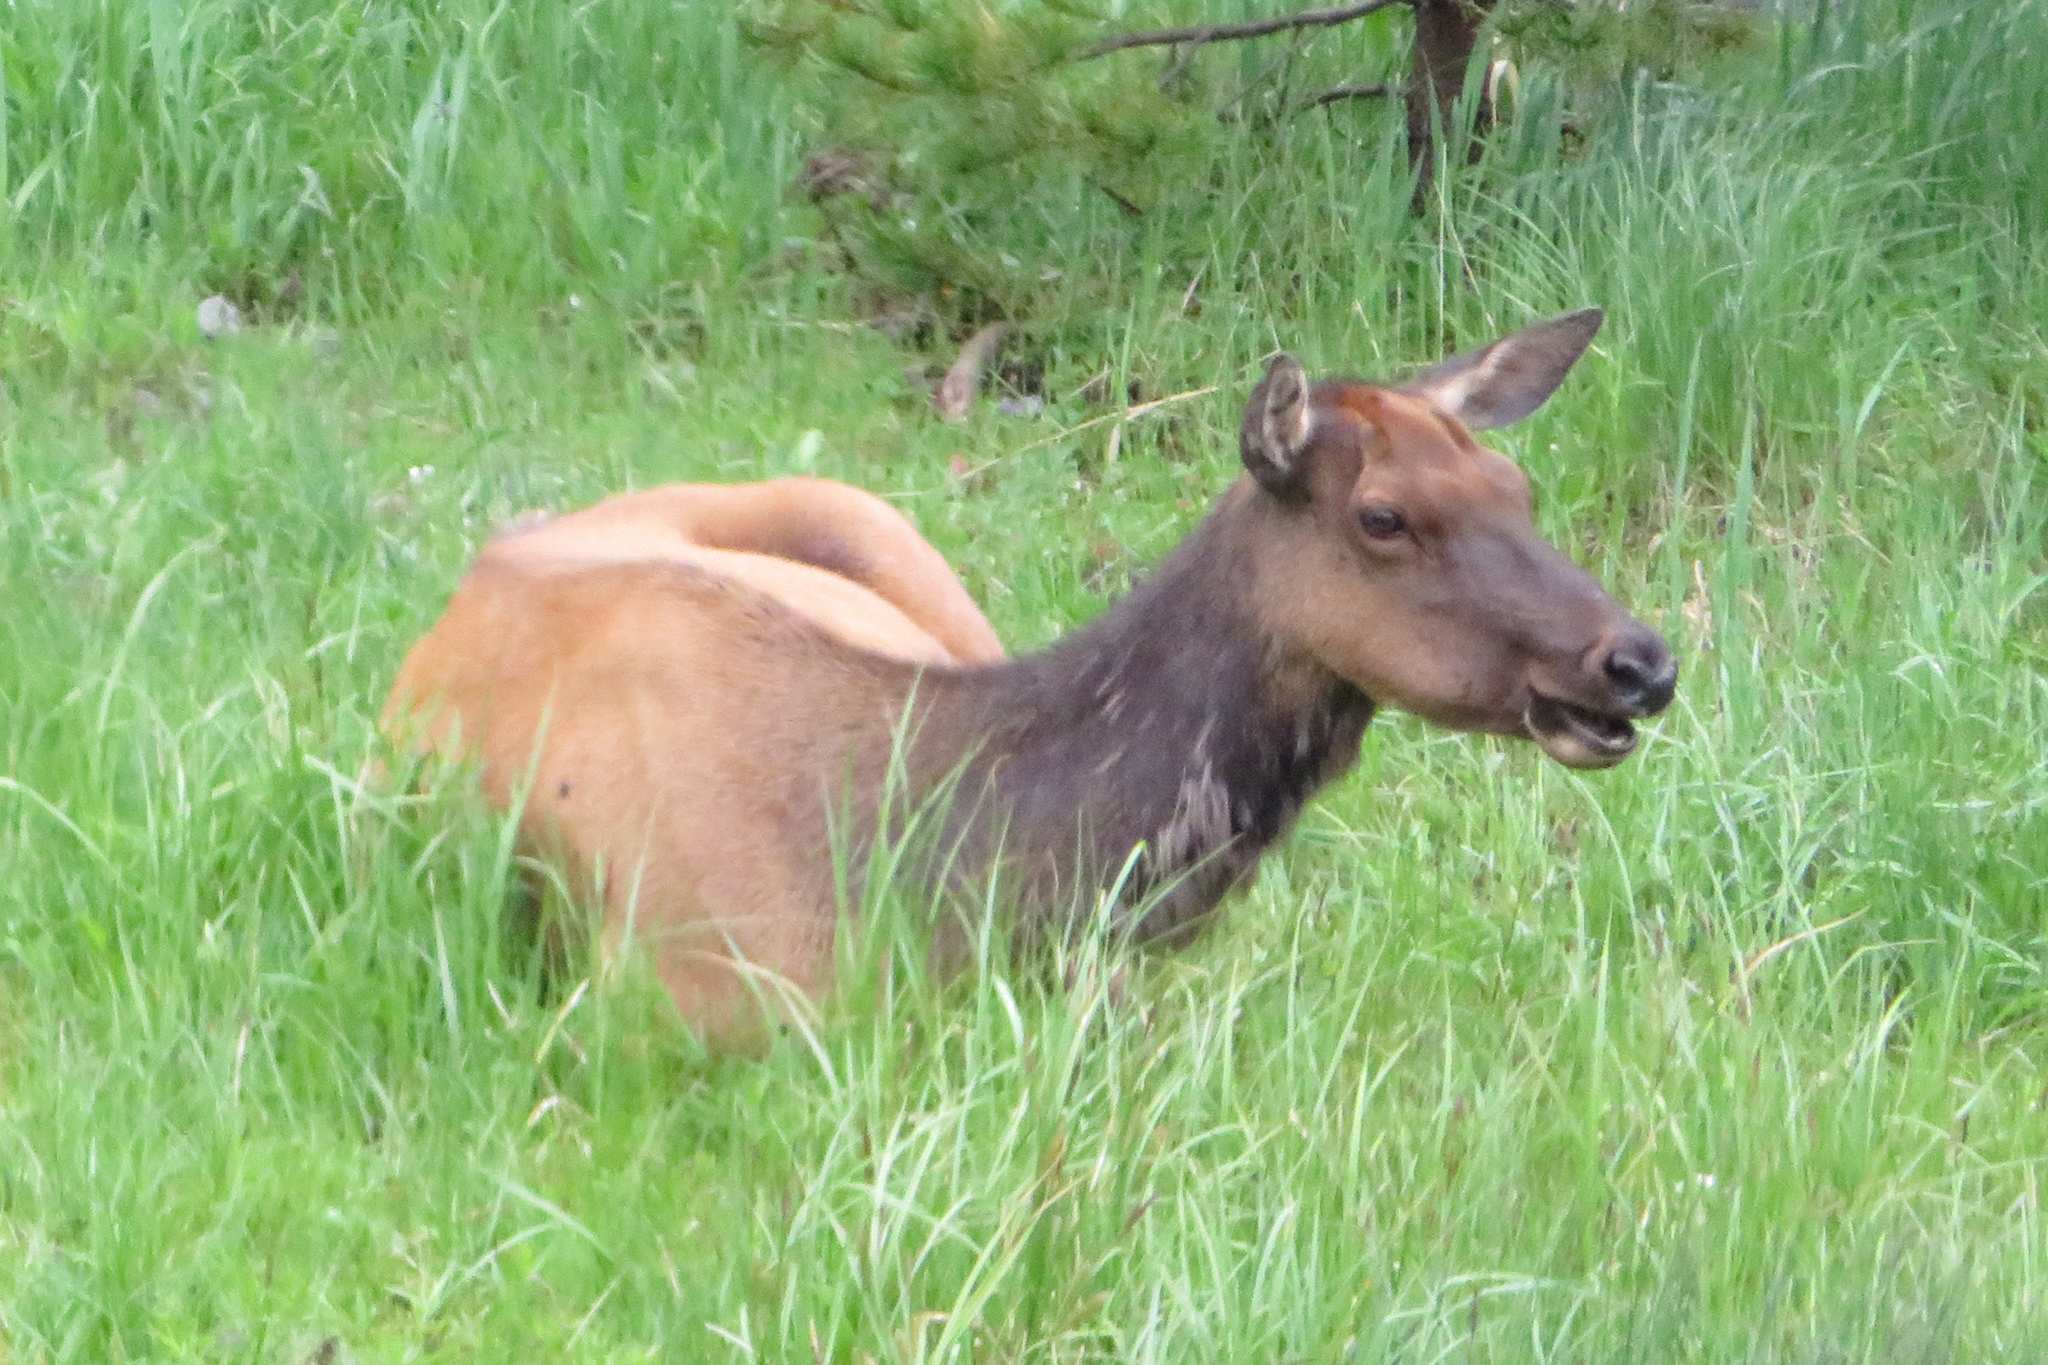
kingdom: Animalia
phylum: Chordata
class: Mammalia
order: Artiodactyla
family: Cervidae
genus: Cervus
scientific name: Cervus elaphus
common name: Red deer
